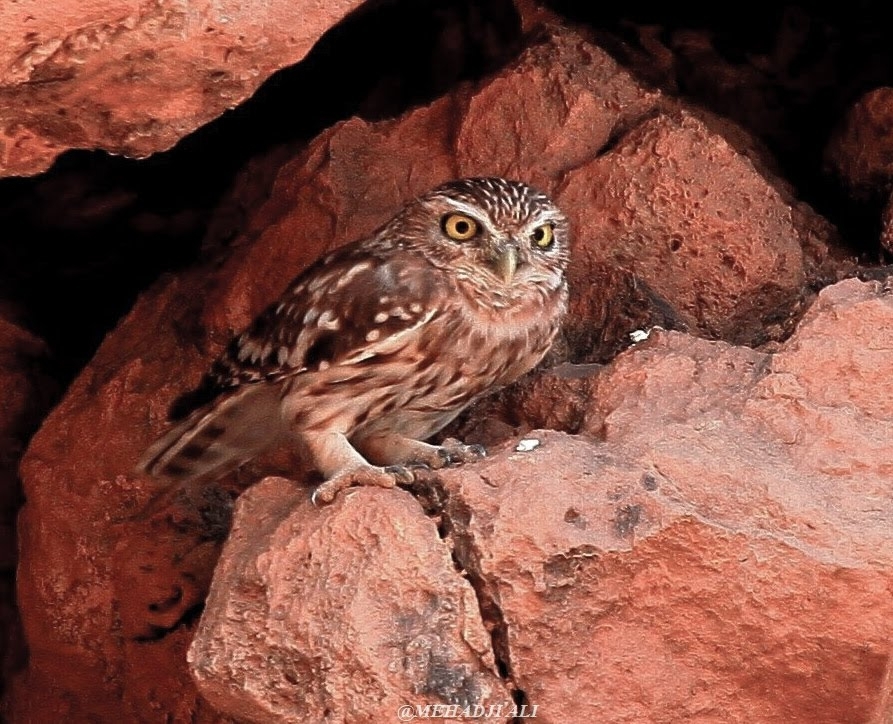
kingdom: Animalia
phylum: Chordata
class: Aves
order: Strigiformes
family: Strigidae
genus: Athene
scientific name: Athene noctua
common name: Little owl
